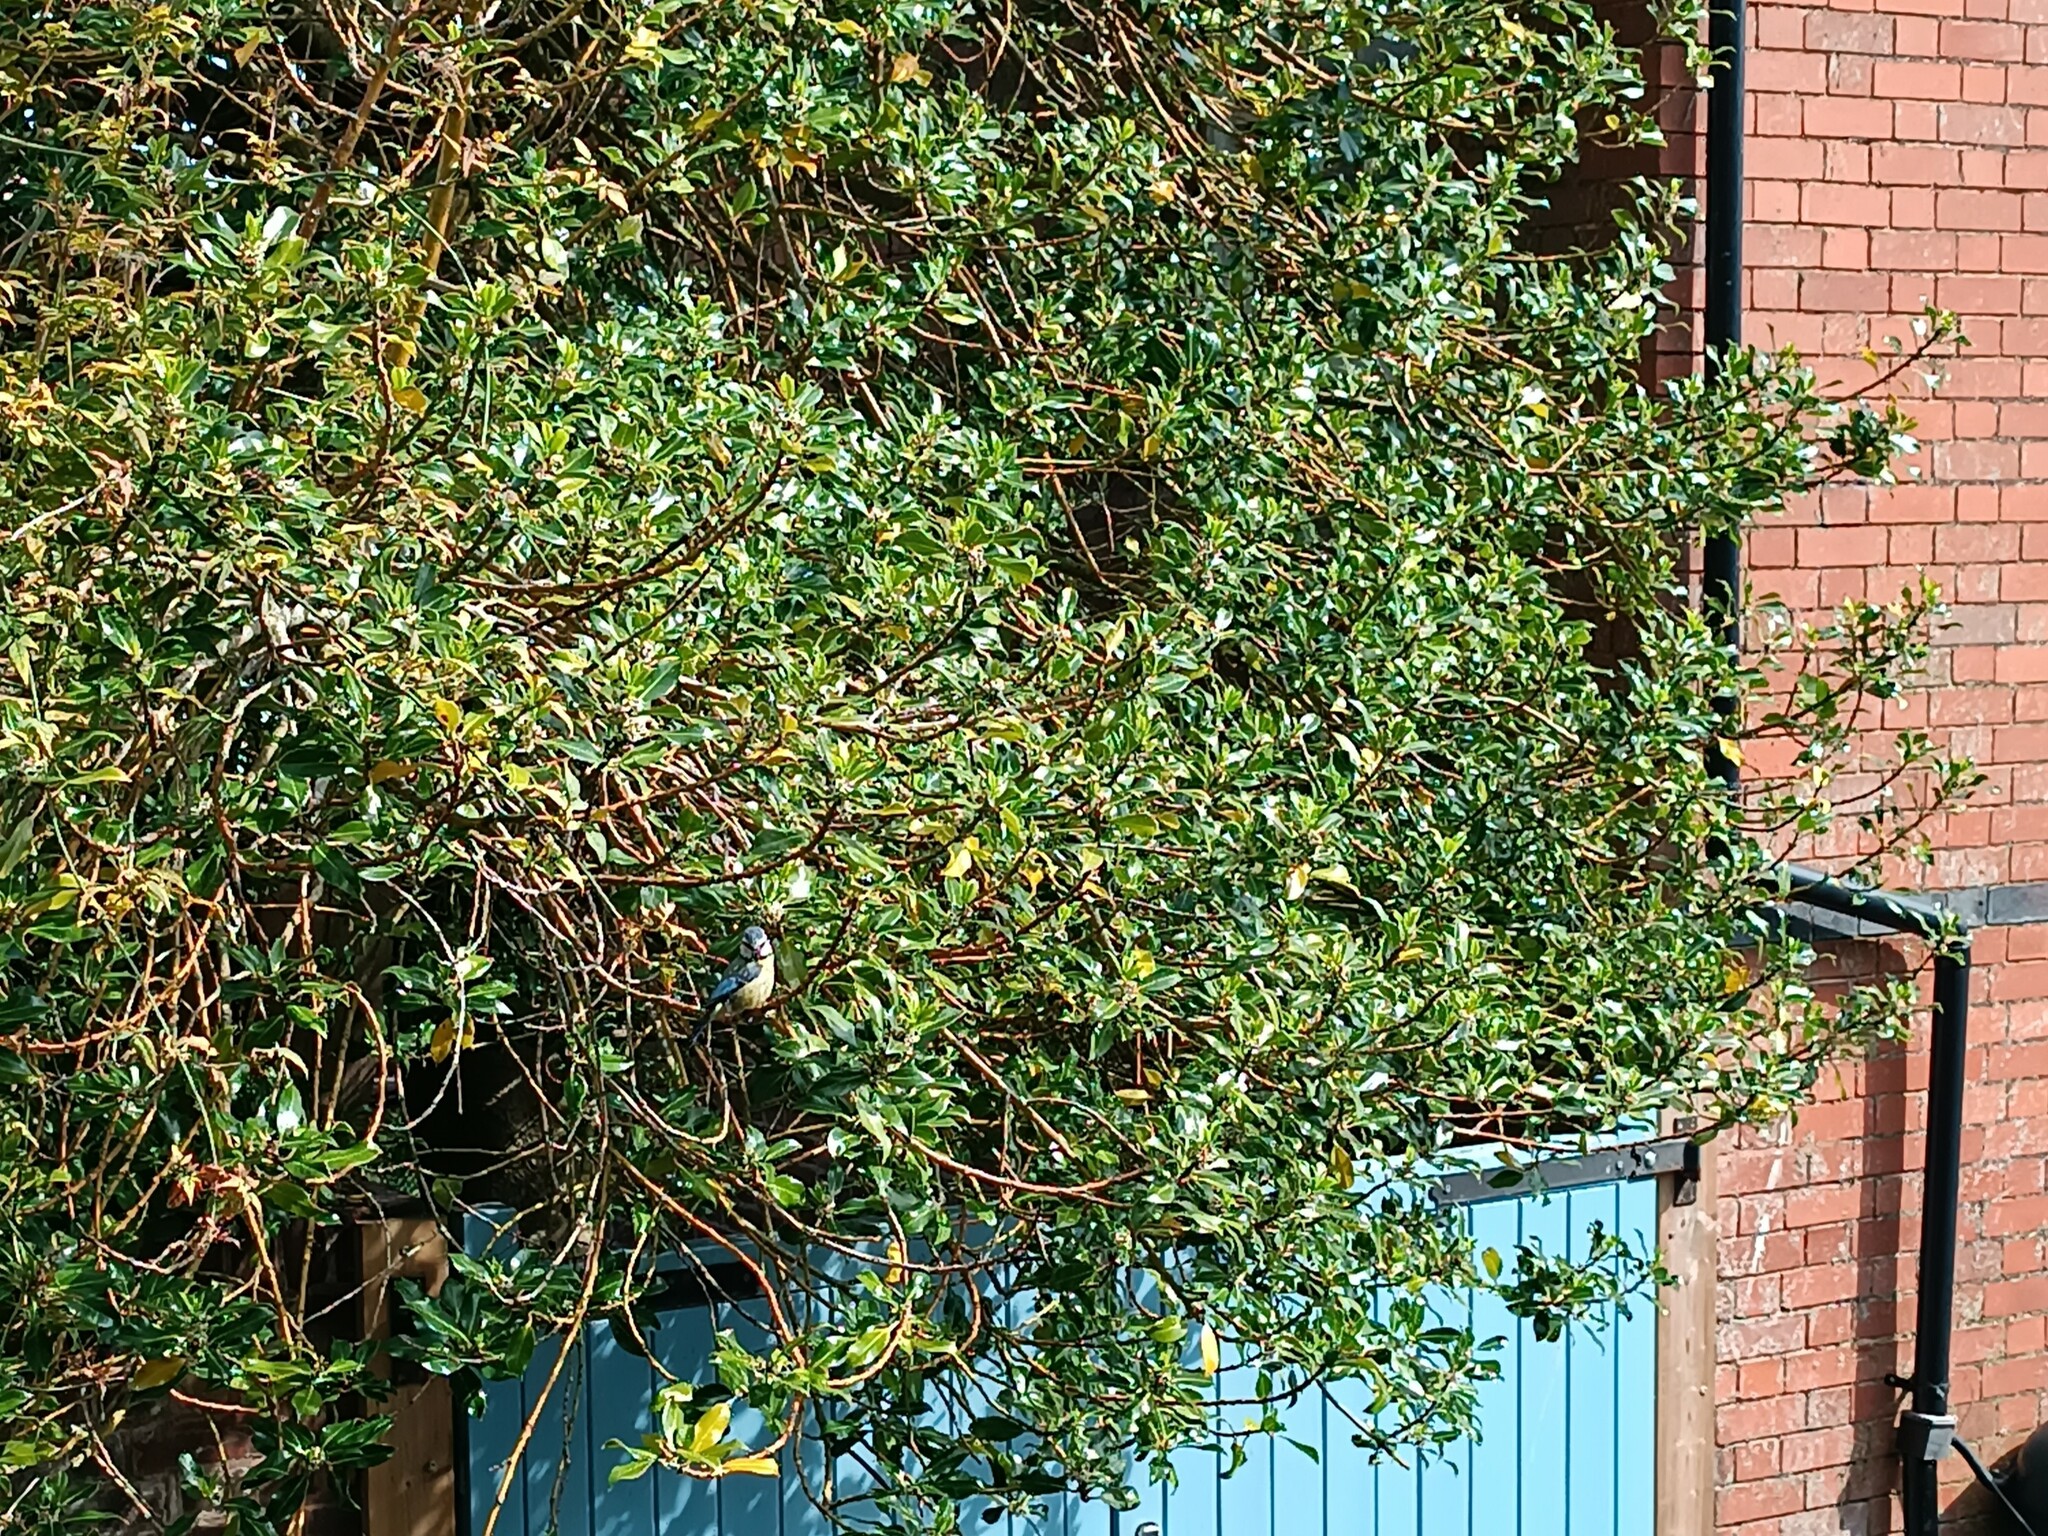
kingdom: Animalia
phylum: Chordata
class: Aves
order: Passeriformes
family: Paridae
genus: Cyanistes
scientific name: Cyanistes caeruleus
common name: Eurasian blue tit
